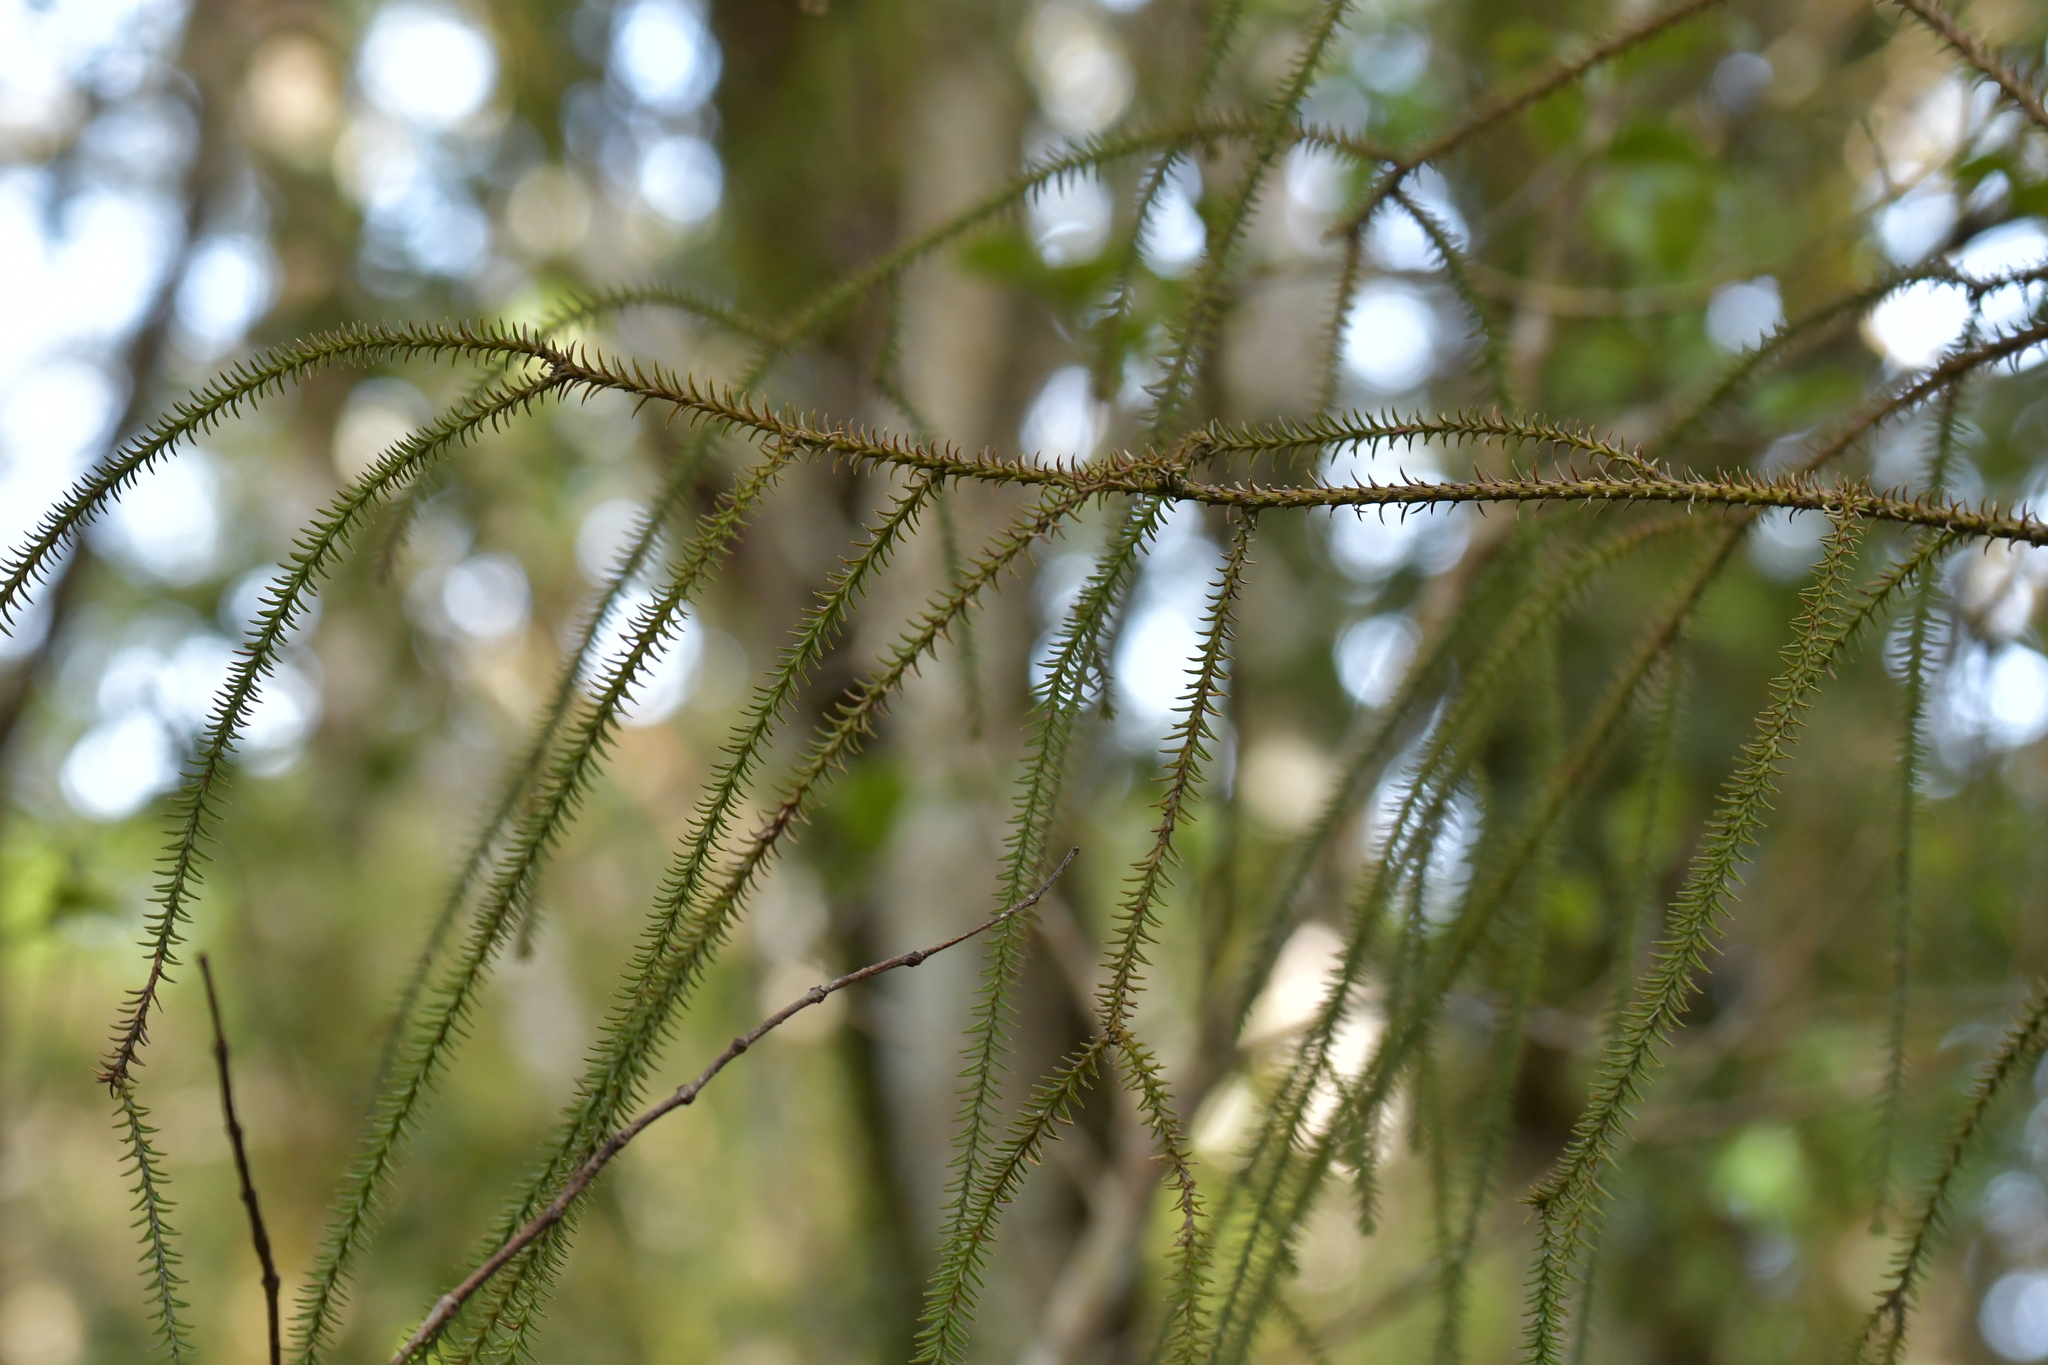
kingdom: Plantae
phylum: Tracheophyta
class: Pinopsida
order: Pinales
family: Podocarpaceae
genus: Dacrydium
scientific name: Dacrydium cupressinum
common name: Red pine
